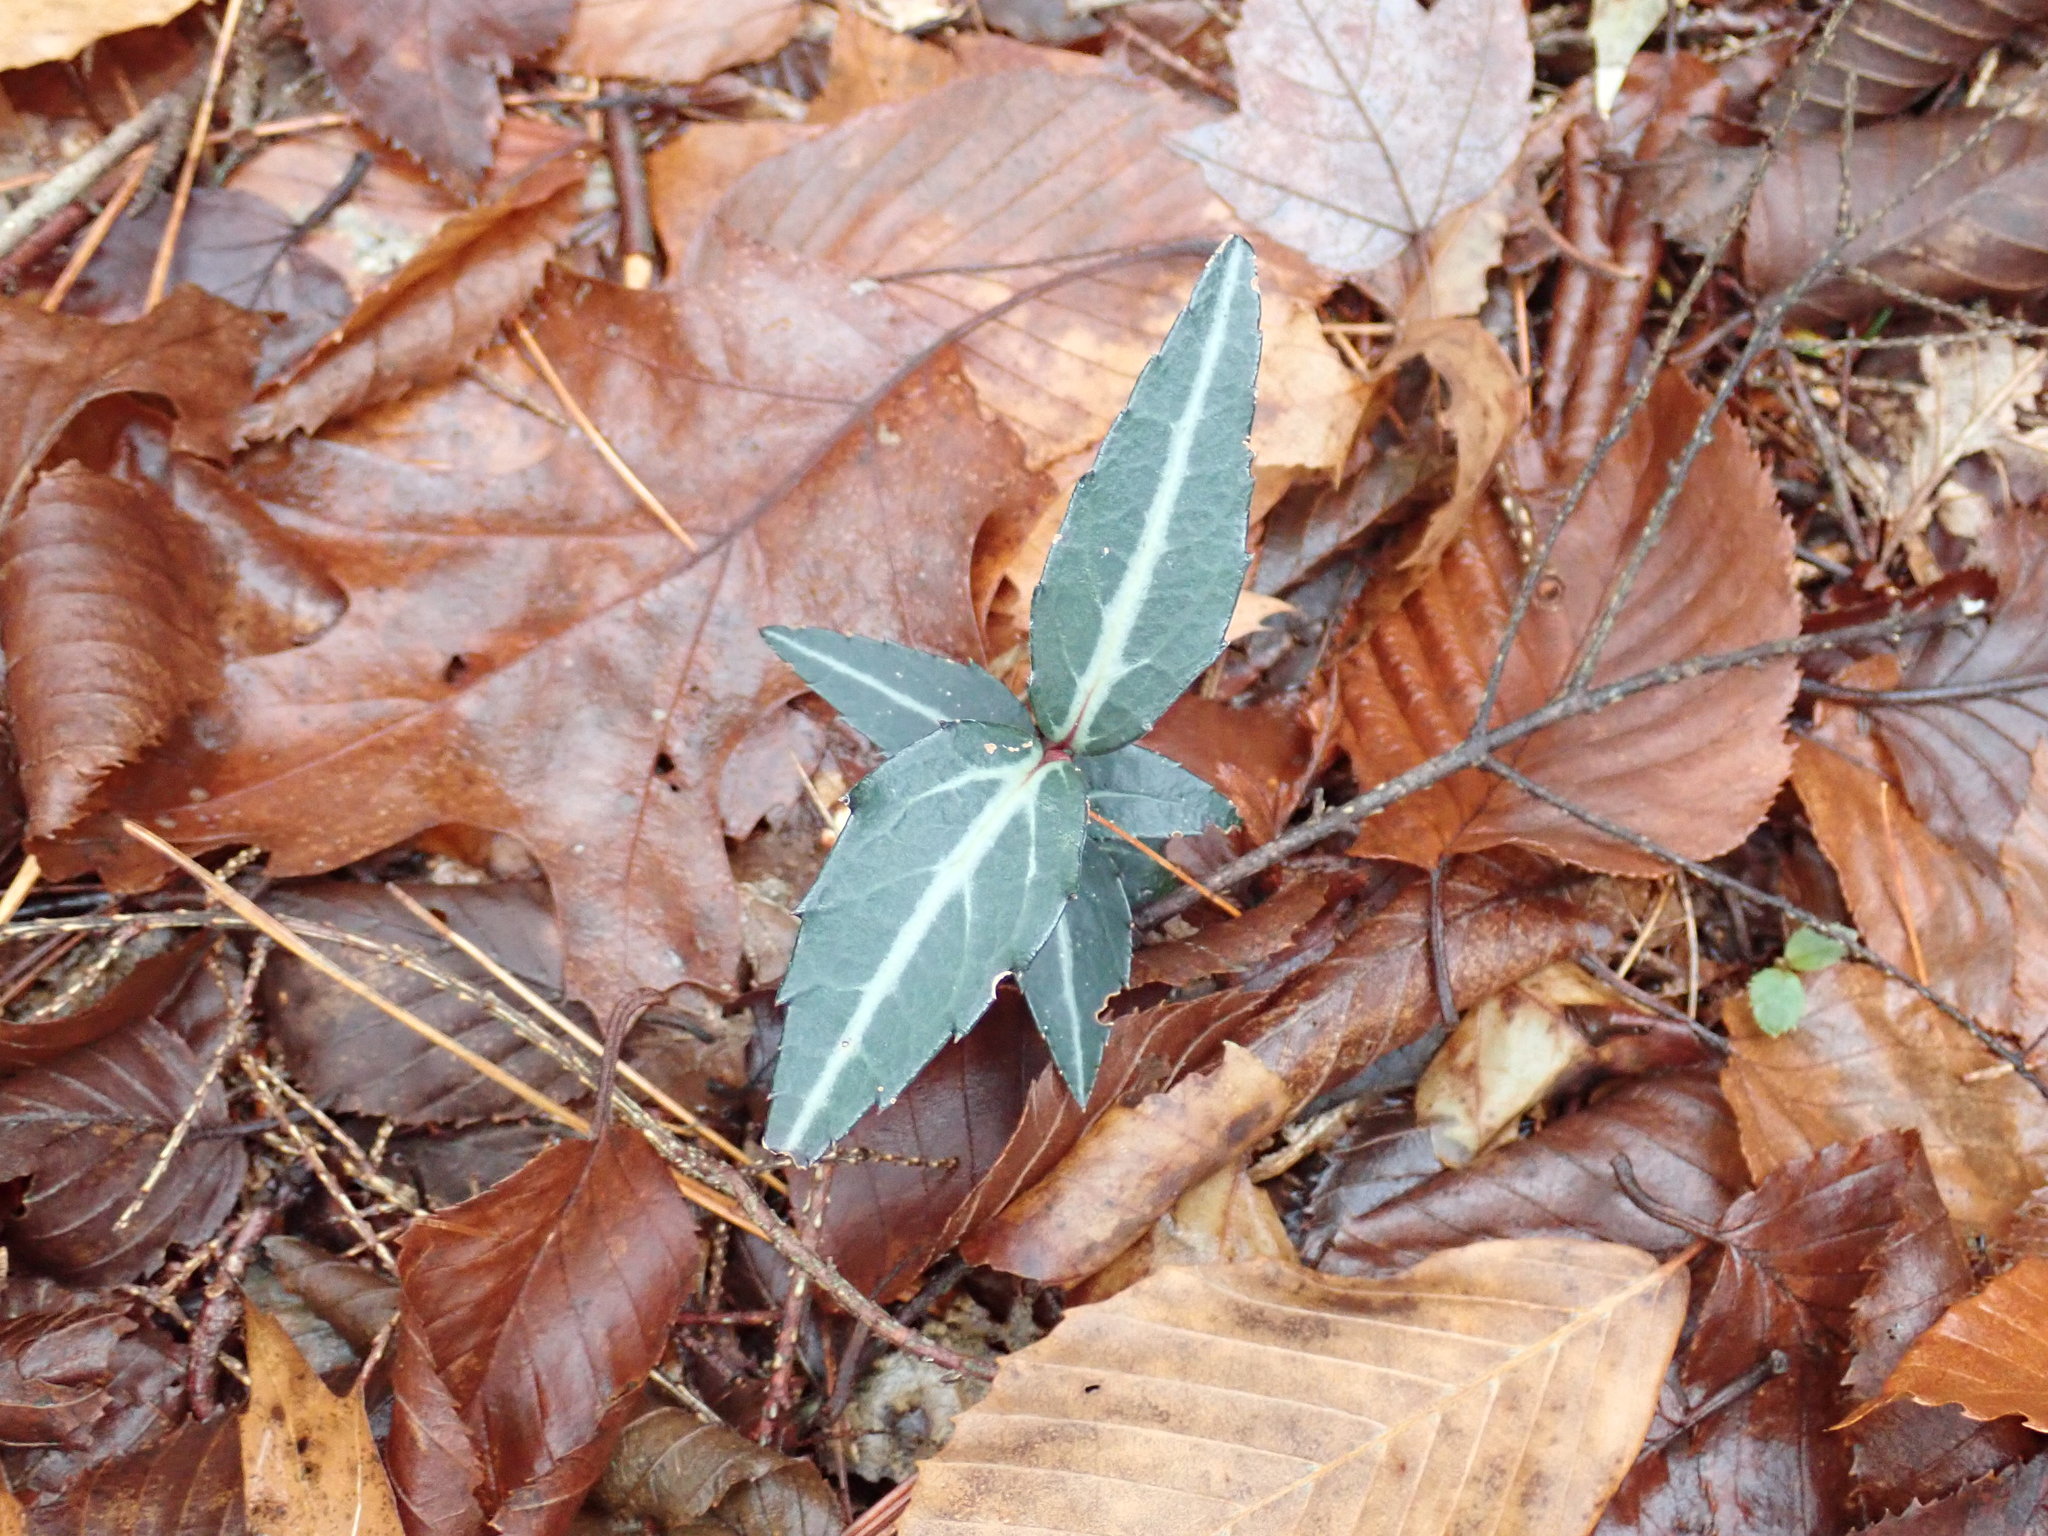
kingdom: Plantae
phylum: Tracheophyta
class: Magnoliopsida
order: Ericales
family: Ericaceae
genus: Chimaphila
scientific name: Chimaphila maculata
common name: Spotted pipsissewa
